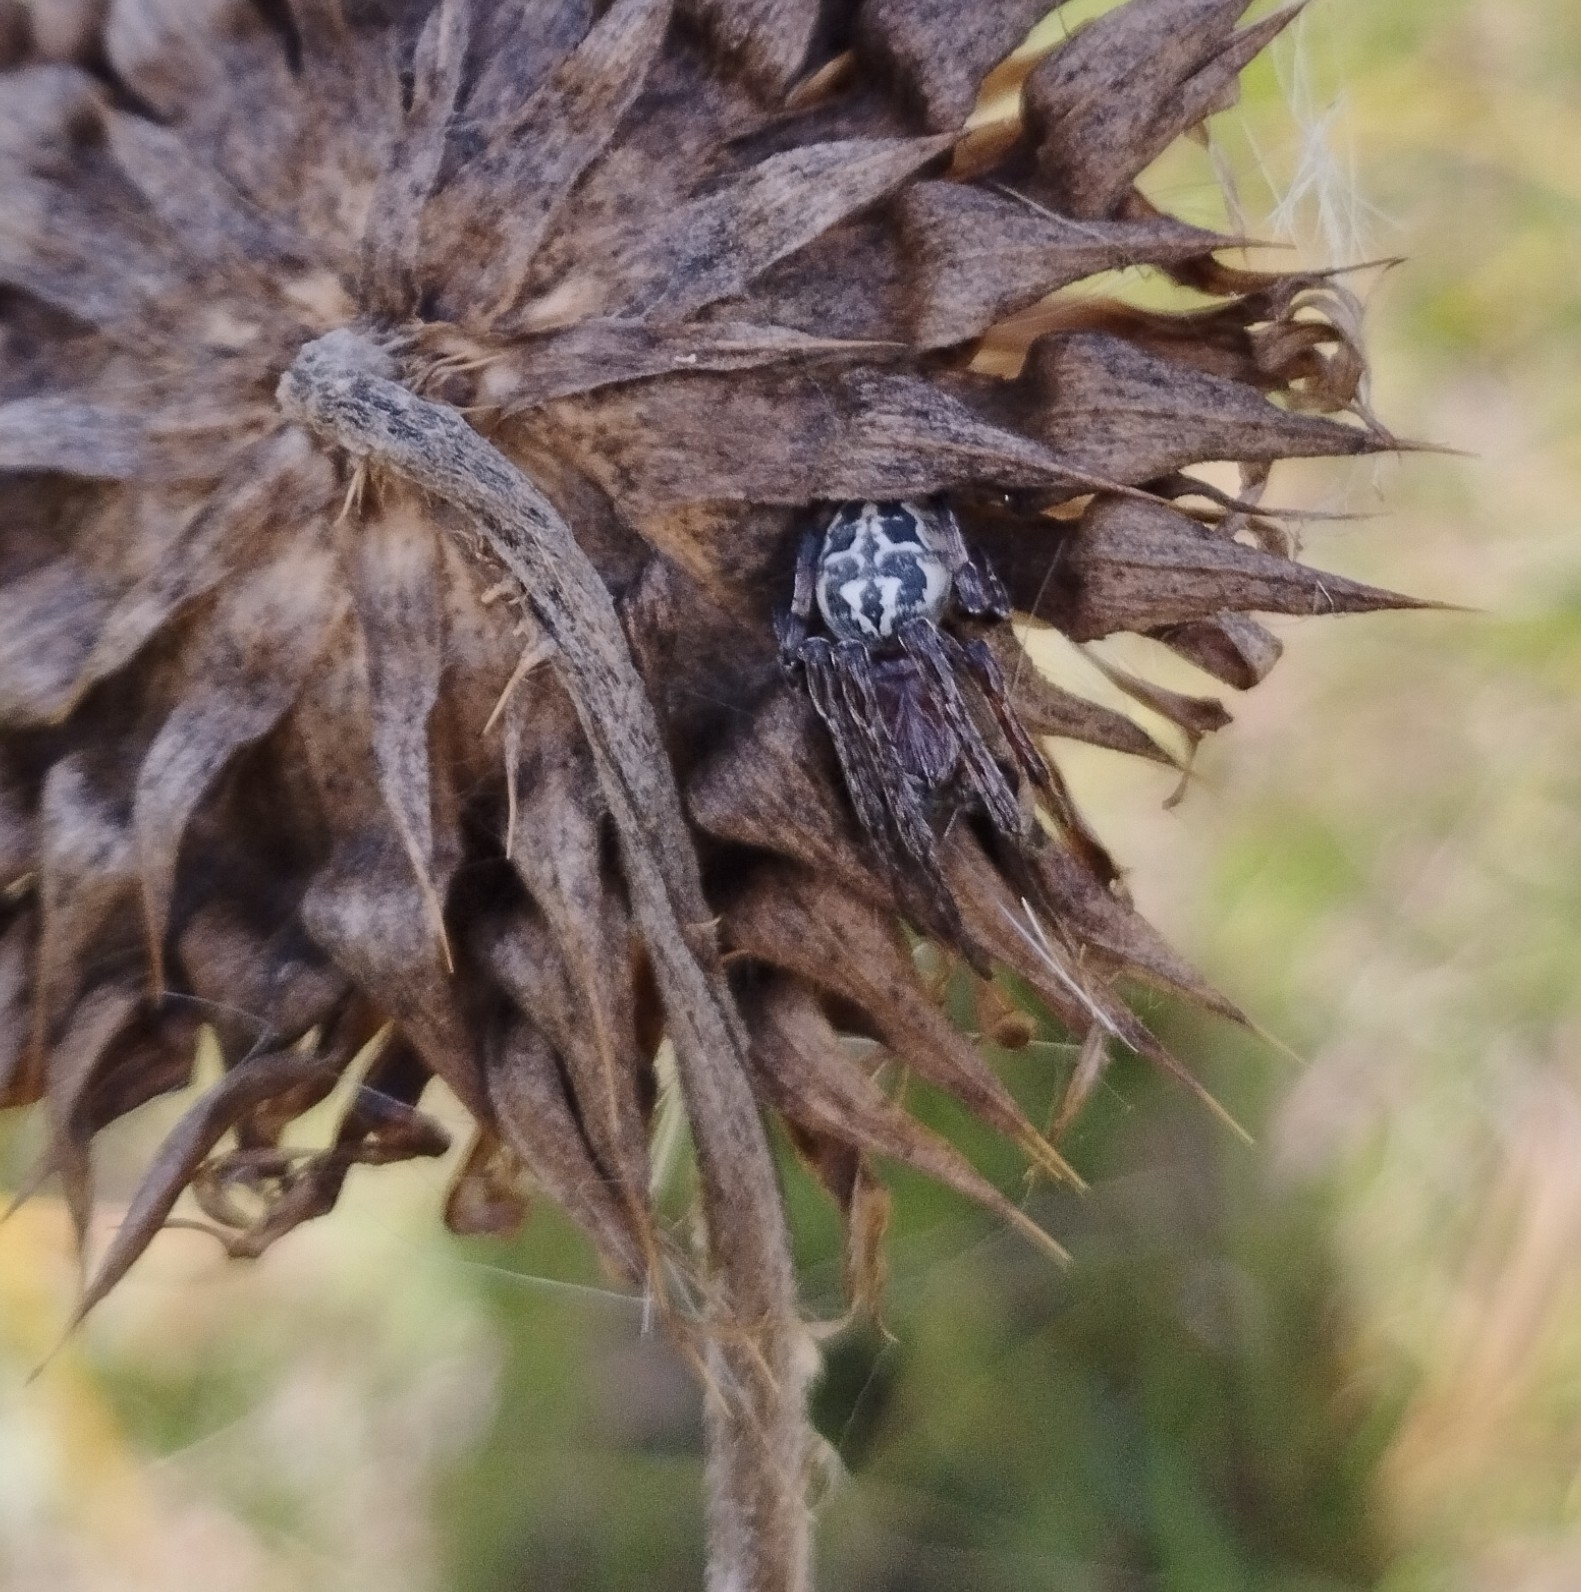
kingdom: Animalia
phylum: Arthropoda
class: Arachnida
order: Araneae
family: Araneidae
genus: Larinioides
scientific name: Larinioides
